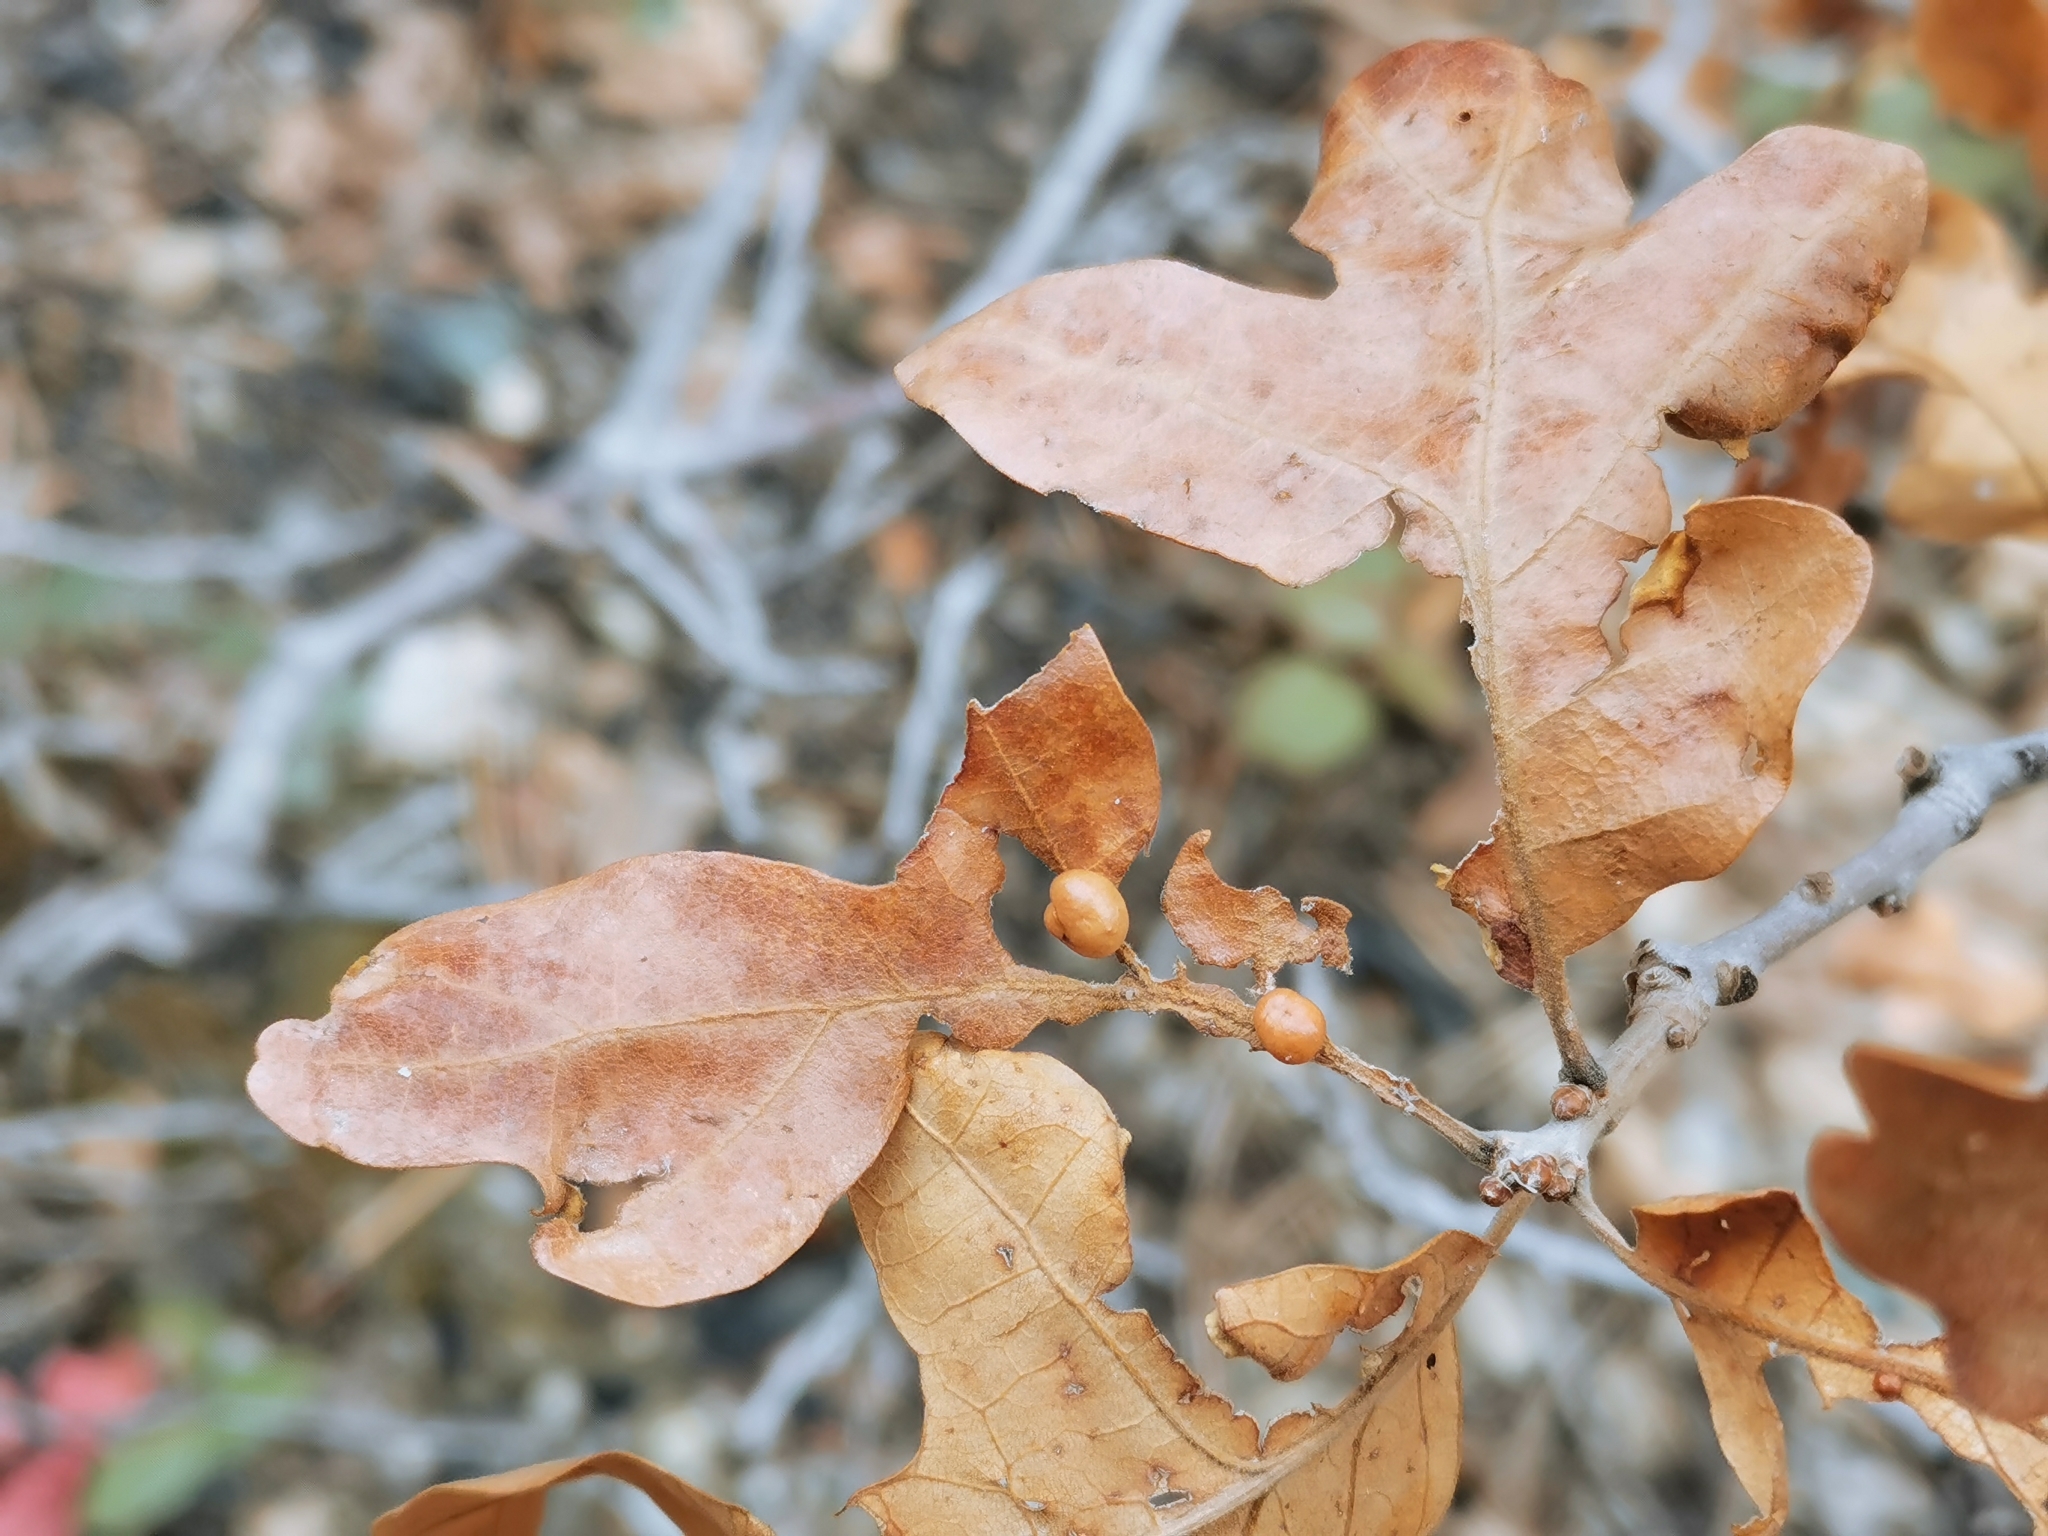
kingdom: Animalia
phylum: Arthropoda
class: Insecta
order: Hymenoptera
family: Cynipidae
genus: Trigonaspis
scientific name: Trigonaspis
